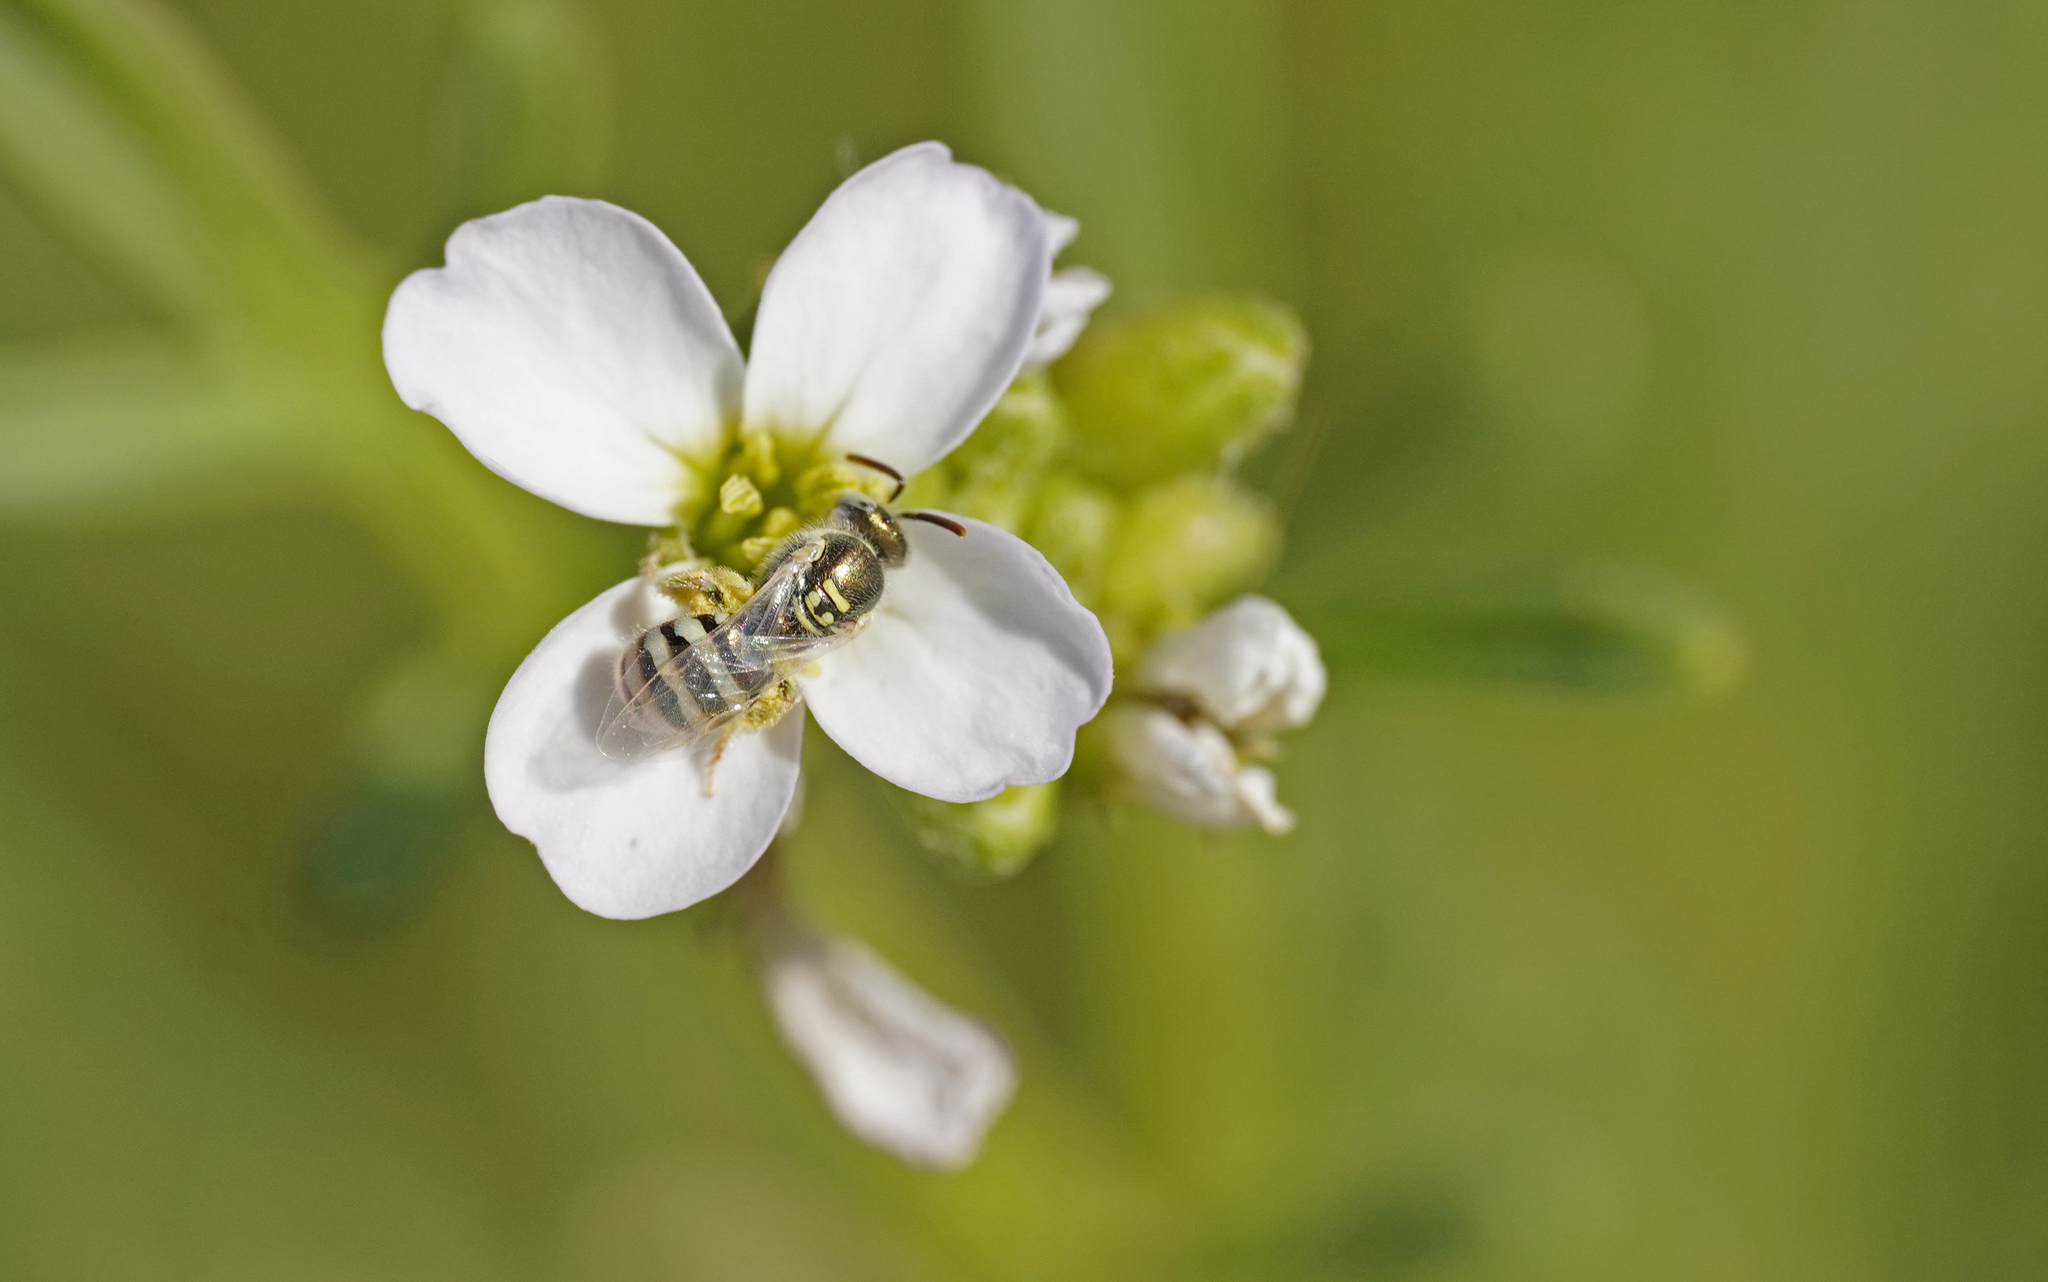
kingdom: Animalia
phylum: Arthropoda
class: Insecta
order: Hymenoptera
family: Halictidae
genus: Ceylalictus
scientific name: Ceylalictus variegatus
